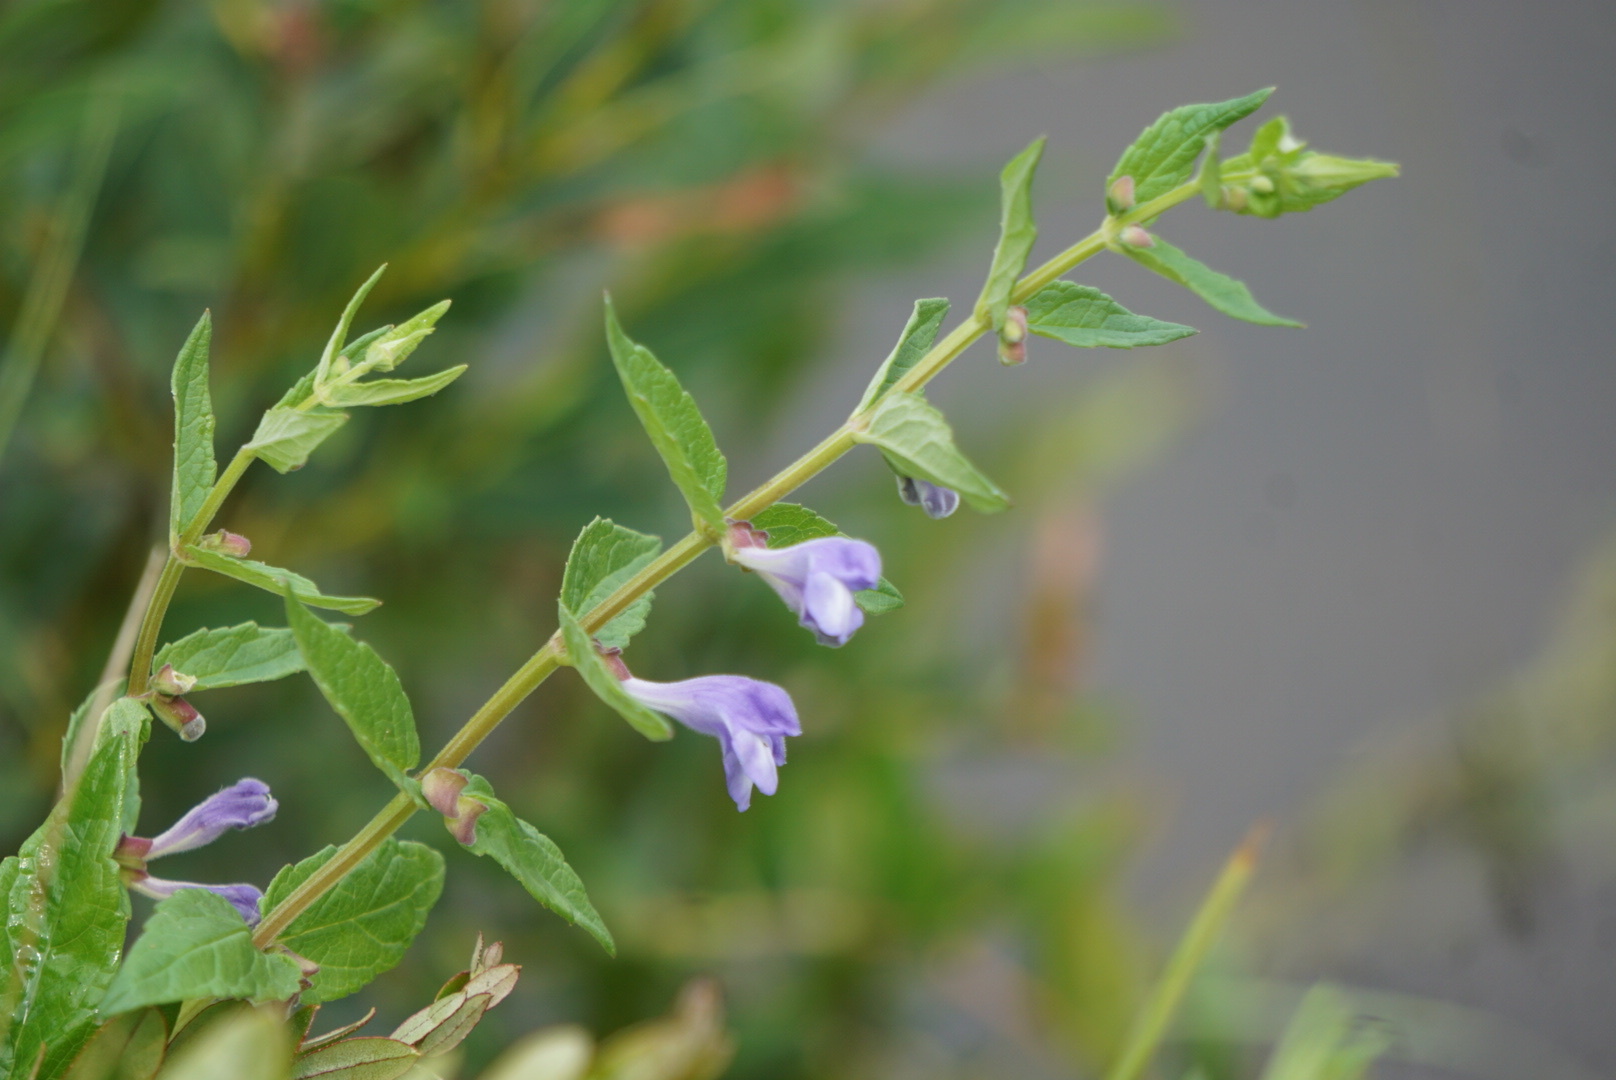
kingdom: Plantae
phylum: Tracheophyta
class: Magnoliopsida
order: Lamiales
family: Lamiaceae
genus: Scutellaria
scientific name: Scutellaria galericulata
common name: Skullcap
